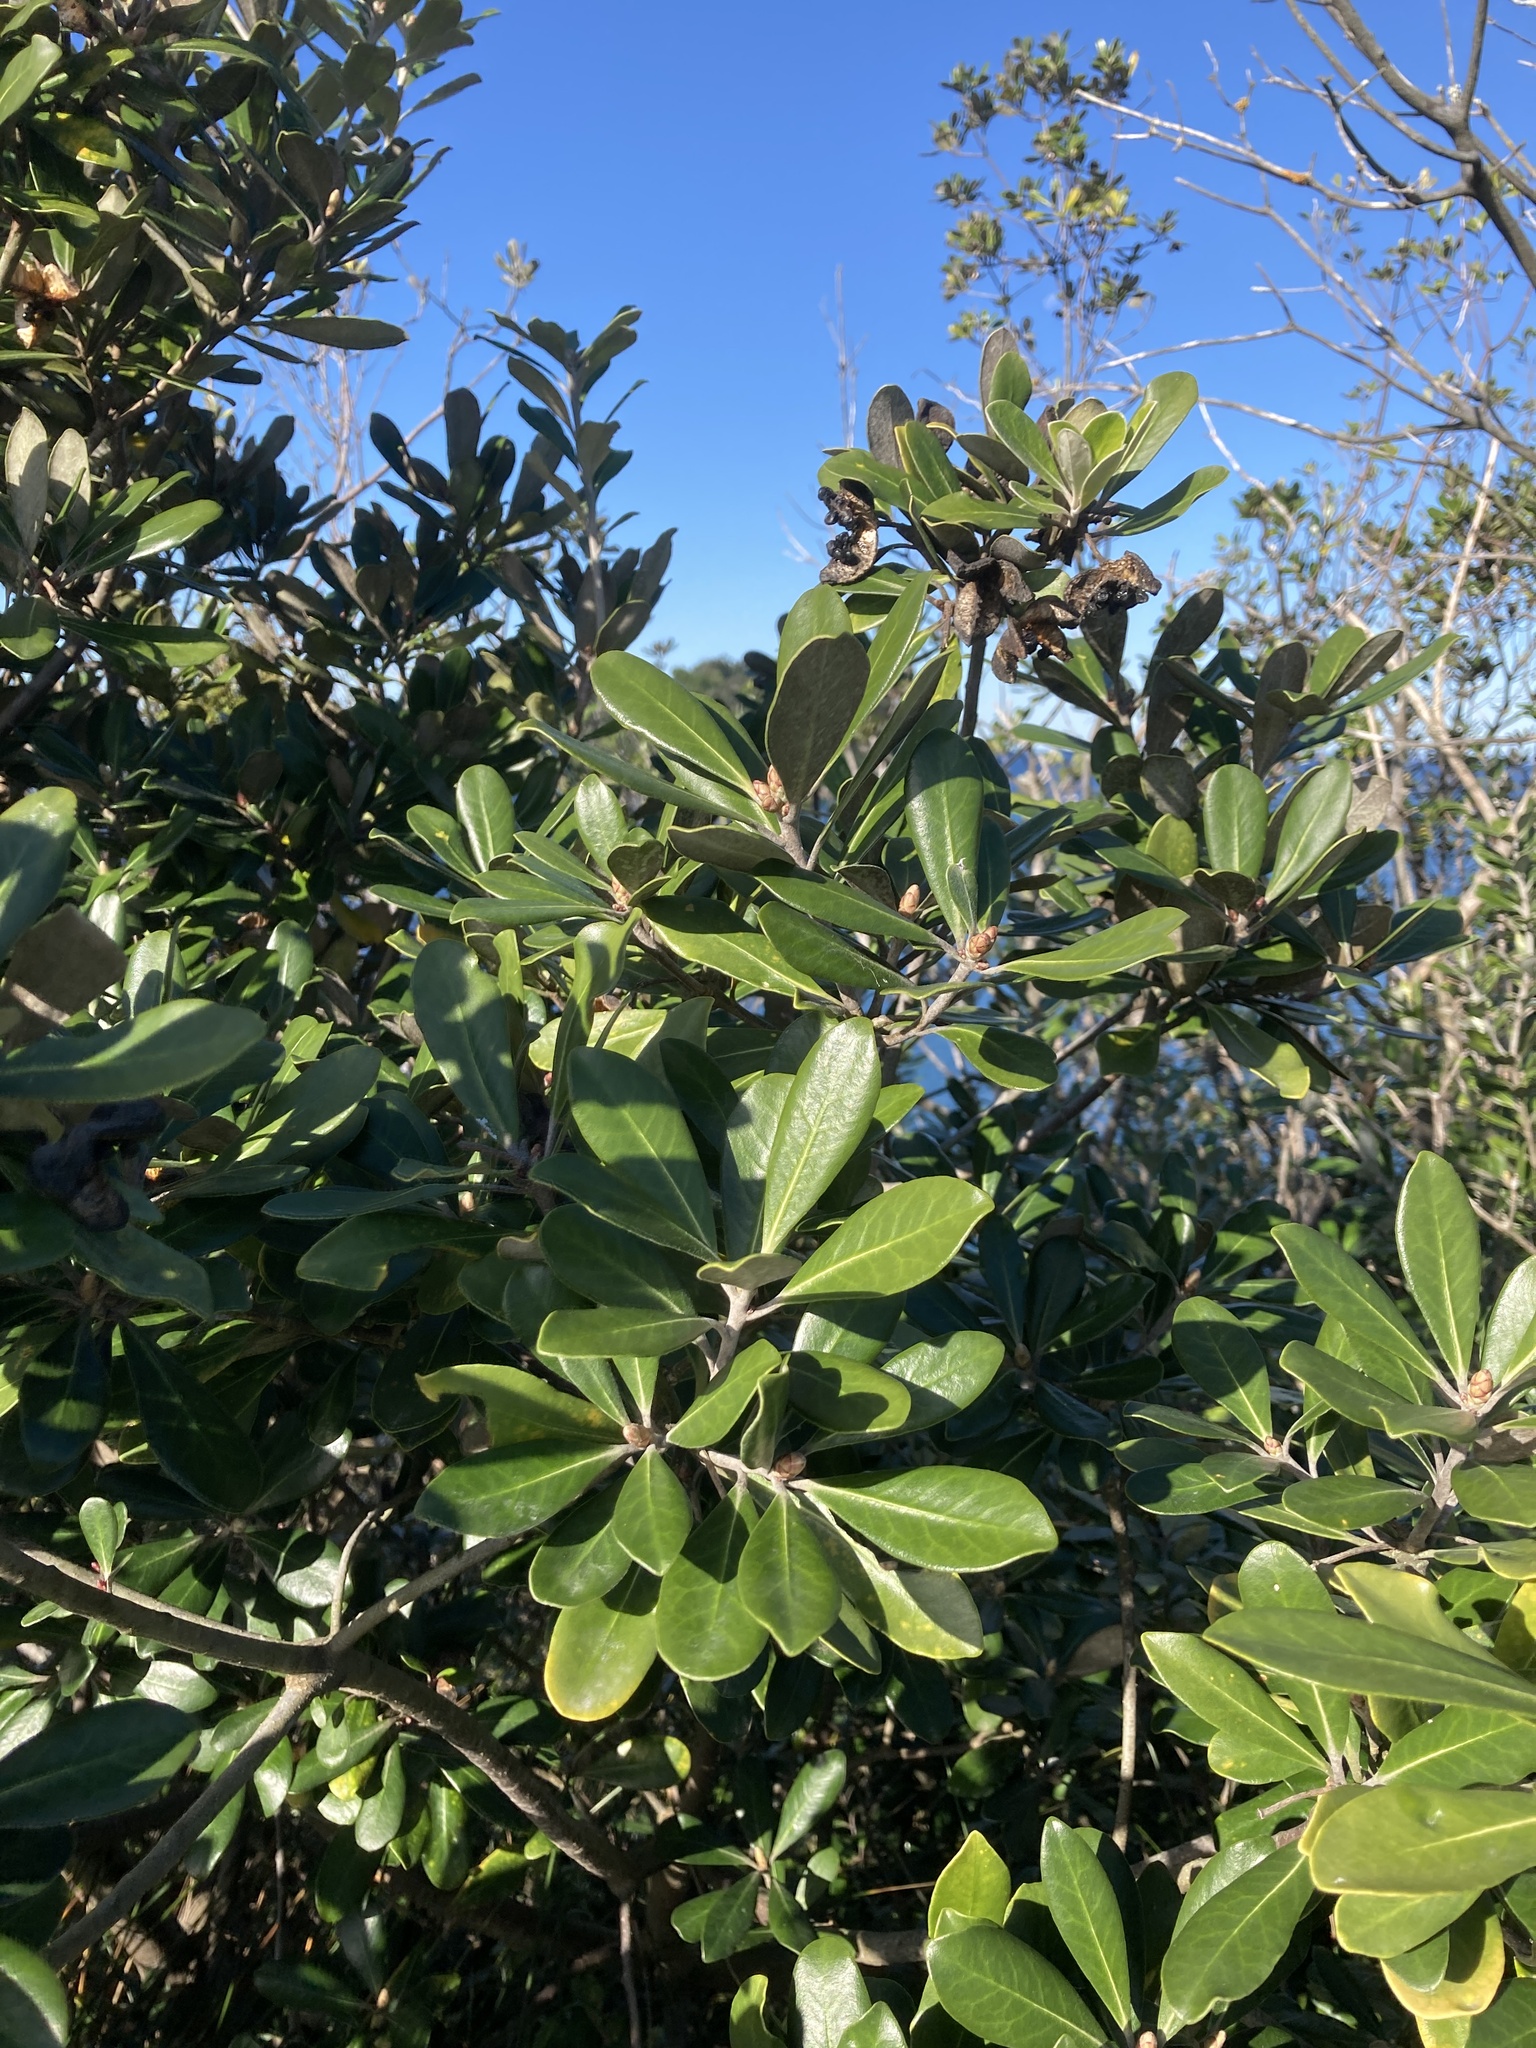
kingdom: Plantae
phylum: Tracheophyta
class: Magnoliopsida
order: Apiales
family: Pittosporaceae
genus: Pittosporum
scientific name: Pittosporum crassifolium
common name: Karo
